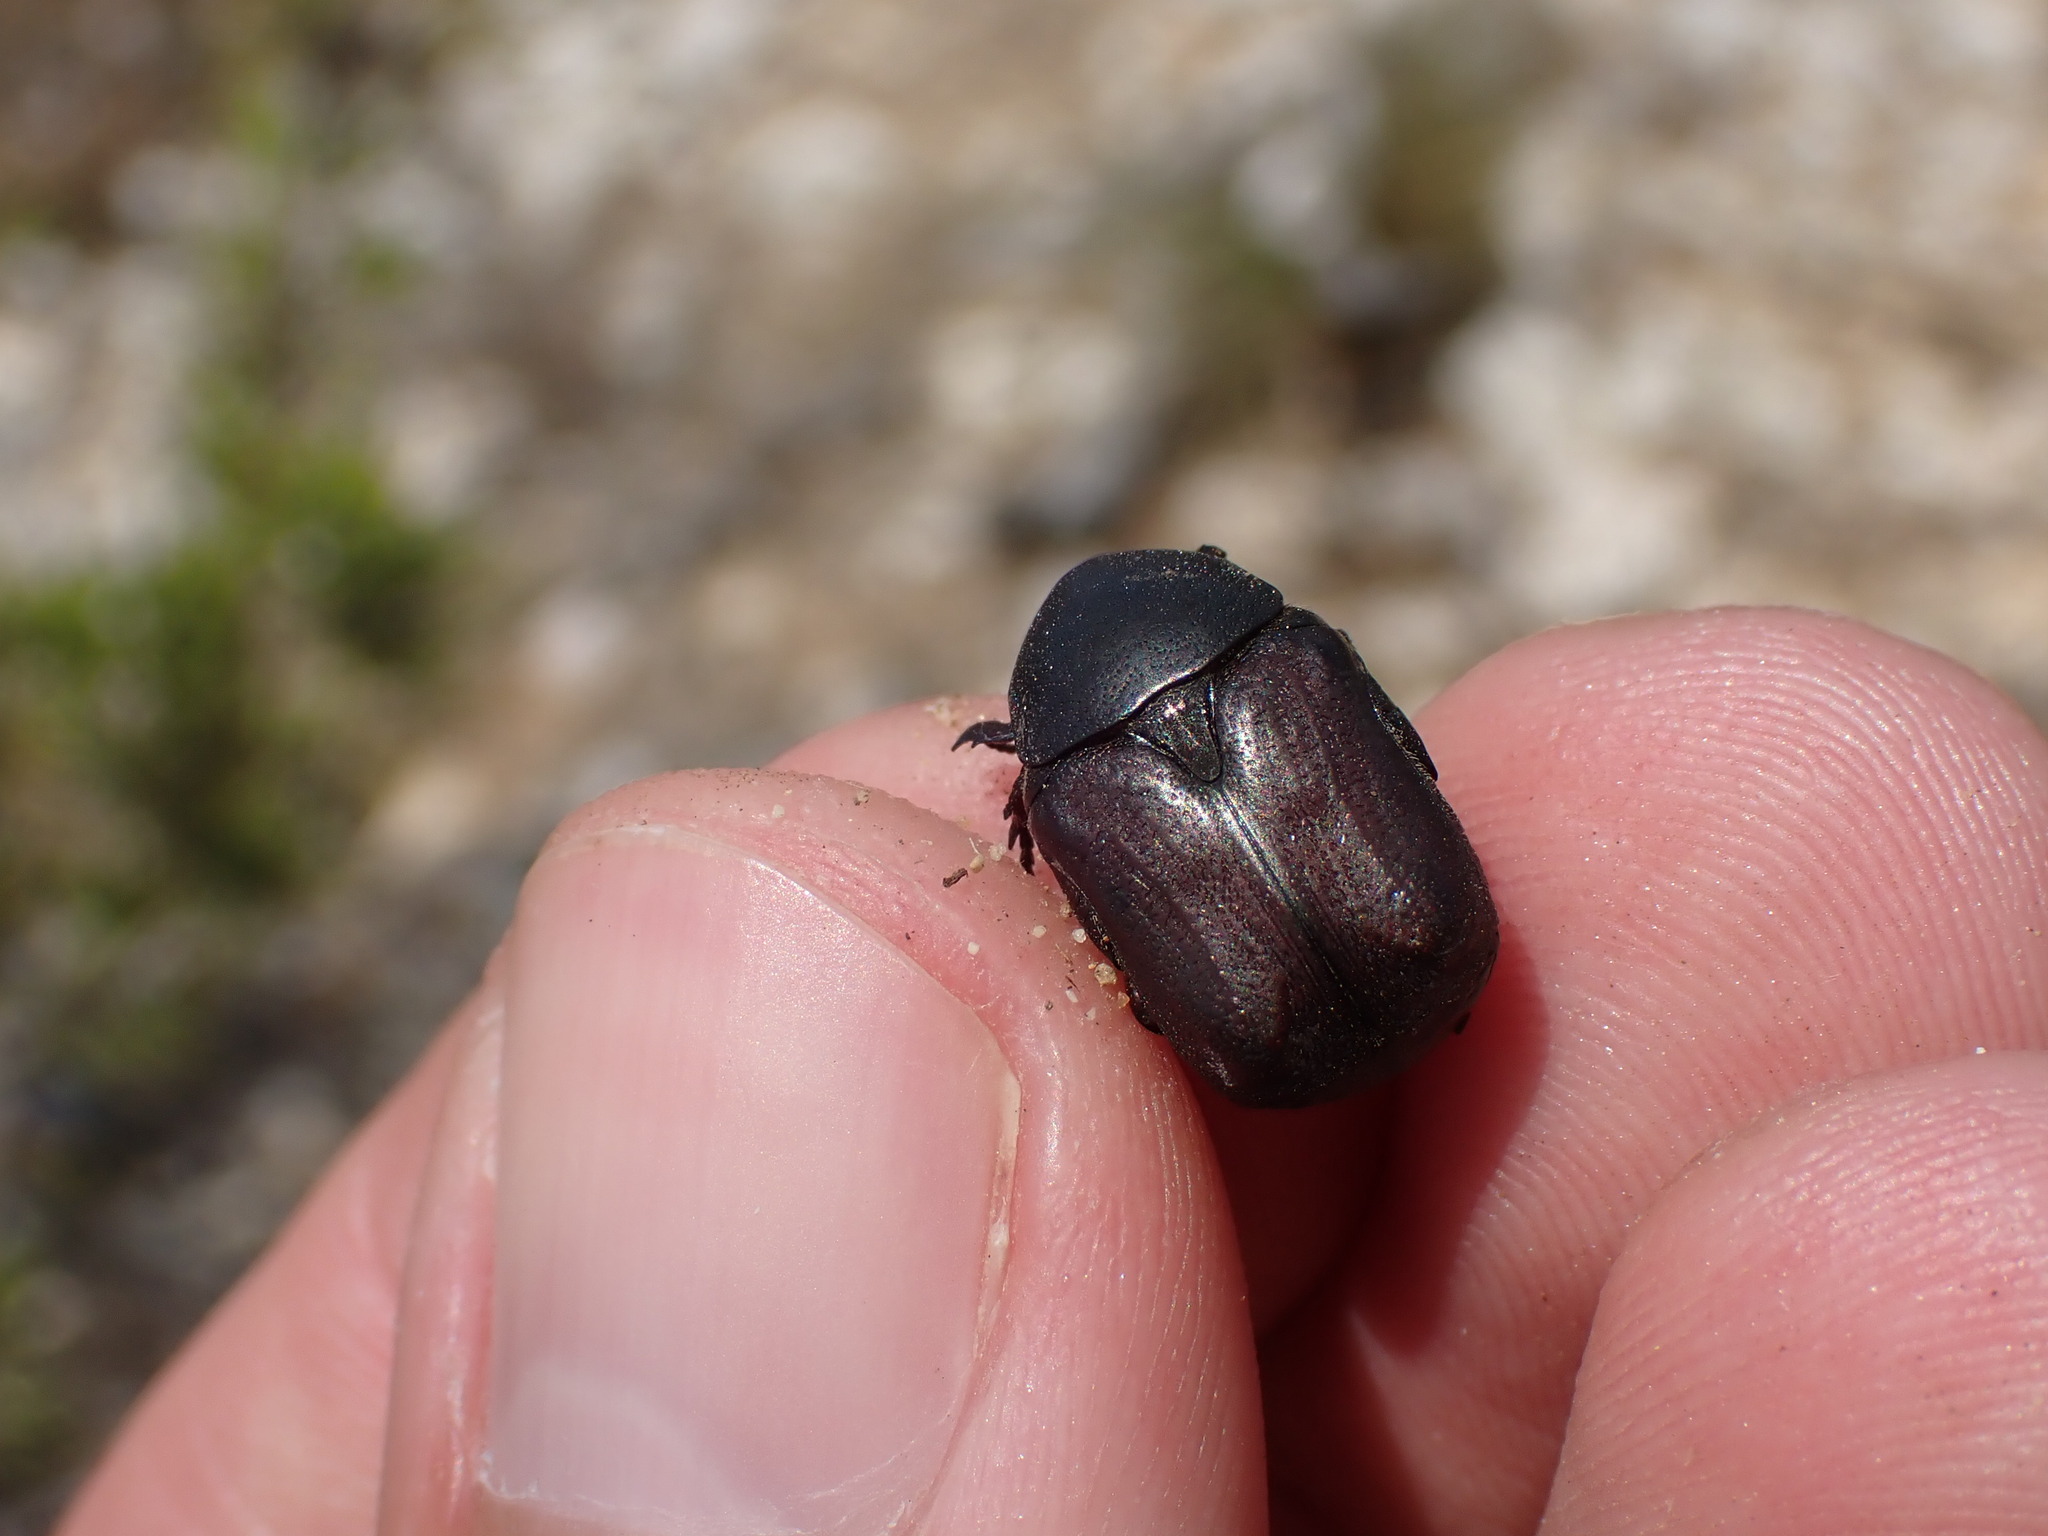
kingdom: Animalia
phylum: Arthropoda
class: Insecta
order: Coleoptera
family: Scarabaeidae
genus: Protaetia
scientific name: Protaetia oblonga
